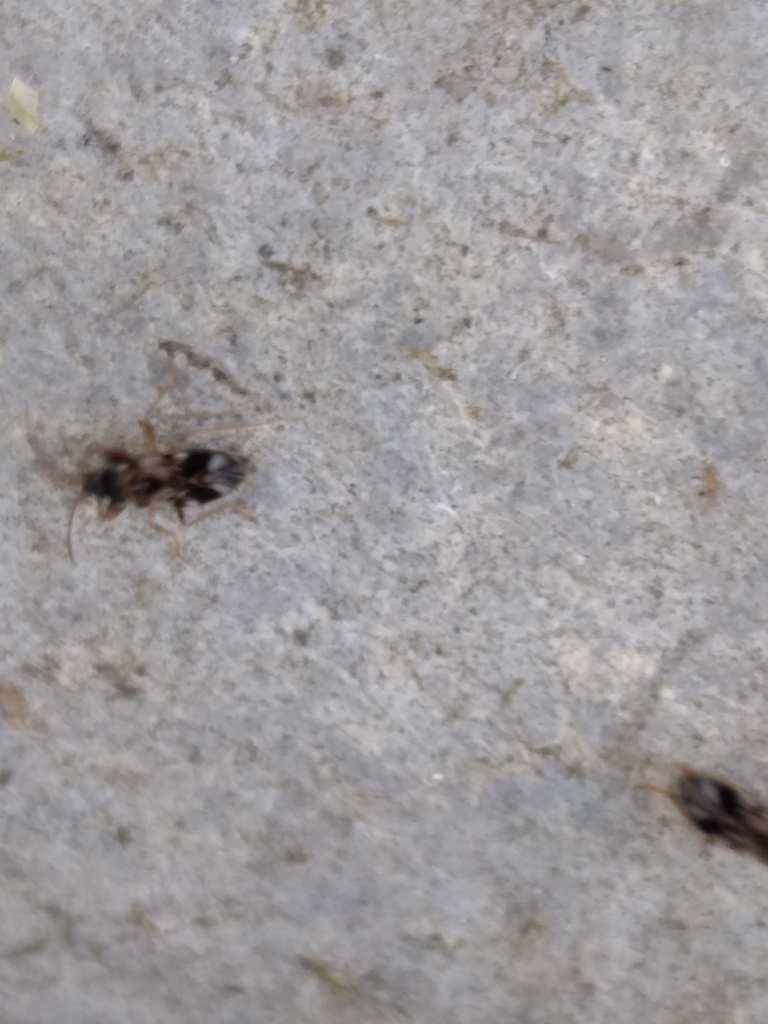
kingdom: Animalia
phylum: Arthropoda
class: Insecta
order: Hemiptera
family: Rhyparochromidae
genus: Scolopostethus
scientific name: Scolopostethus pictus
